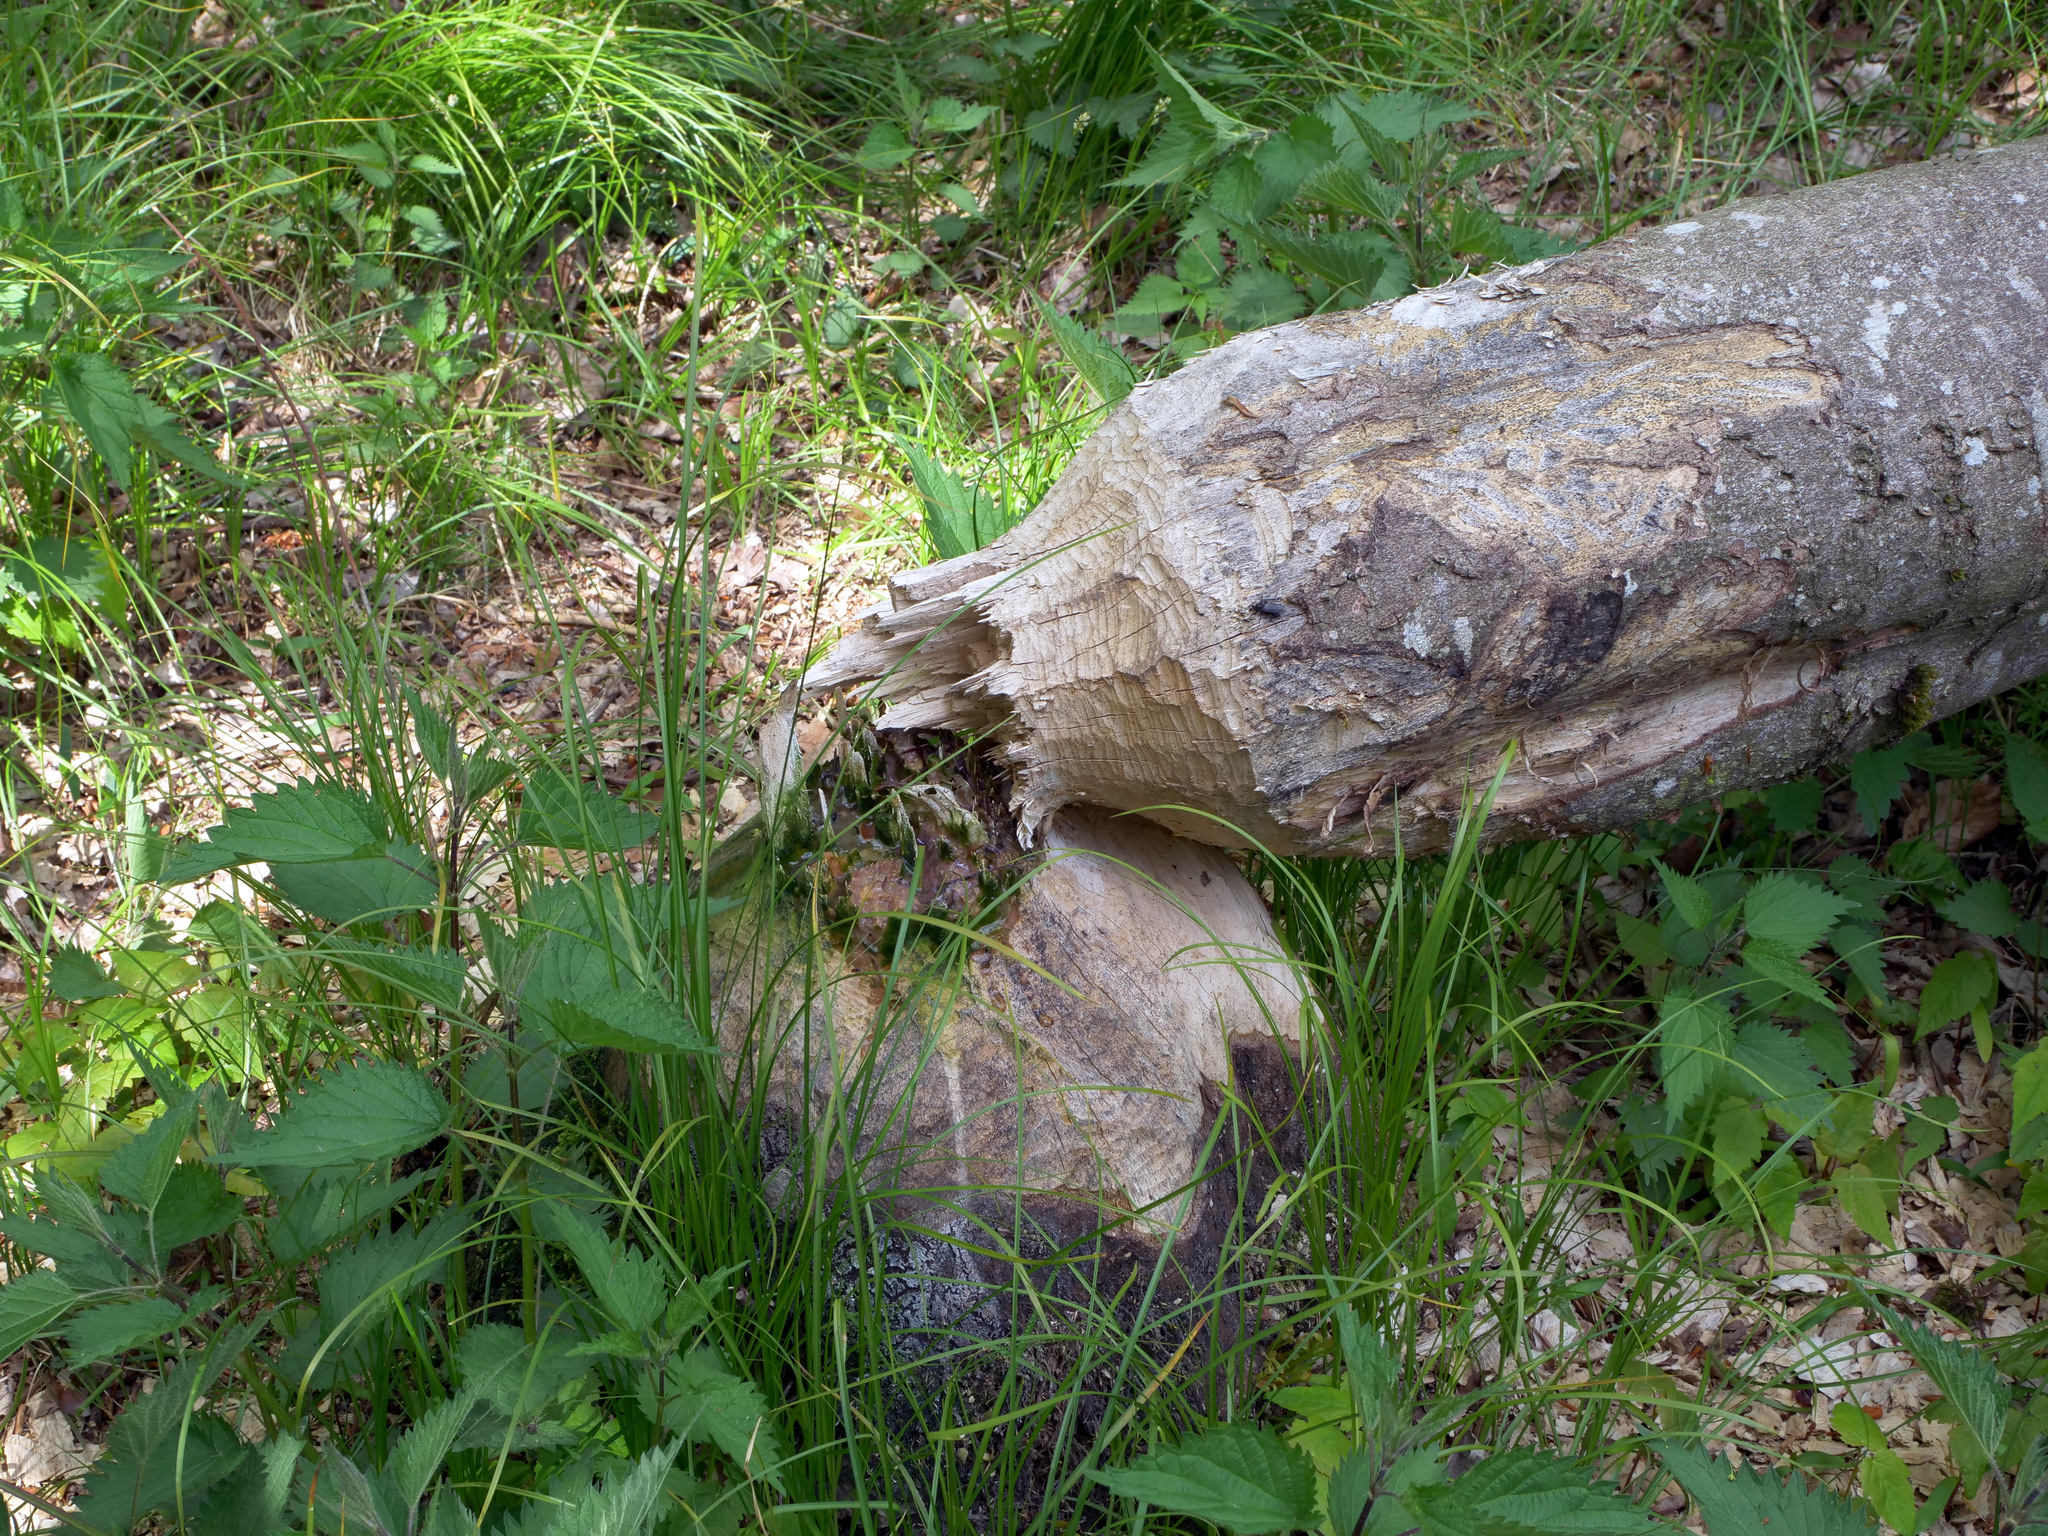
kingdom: Animalia
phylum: Chordata
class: Mammalia
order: Rodentia
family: Castoridae
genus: Castor
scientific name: Castor fiber
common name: Eurasian beaver
